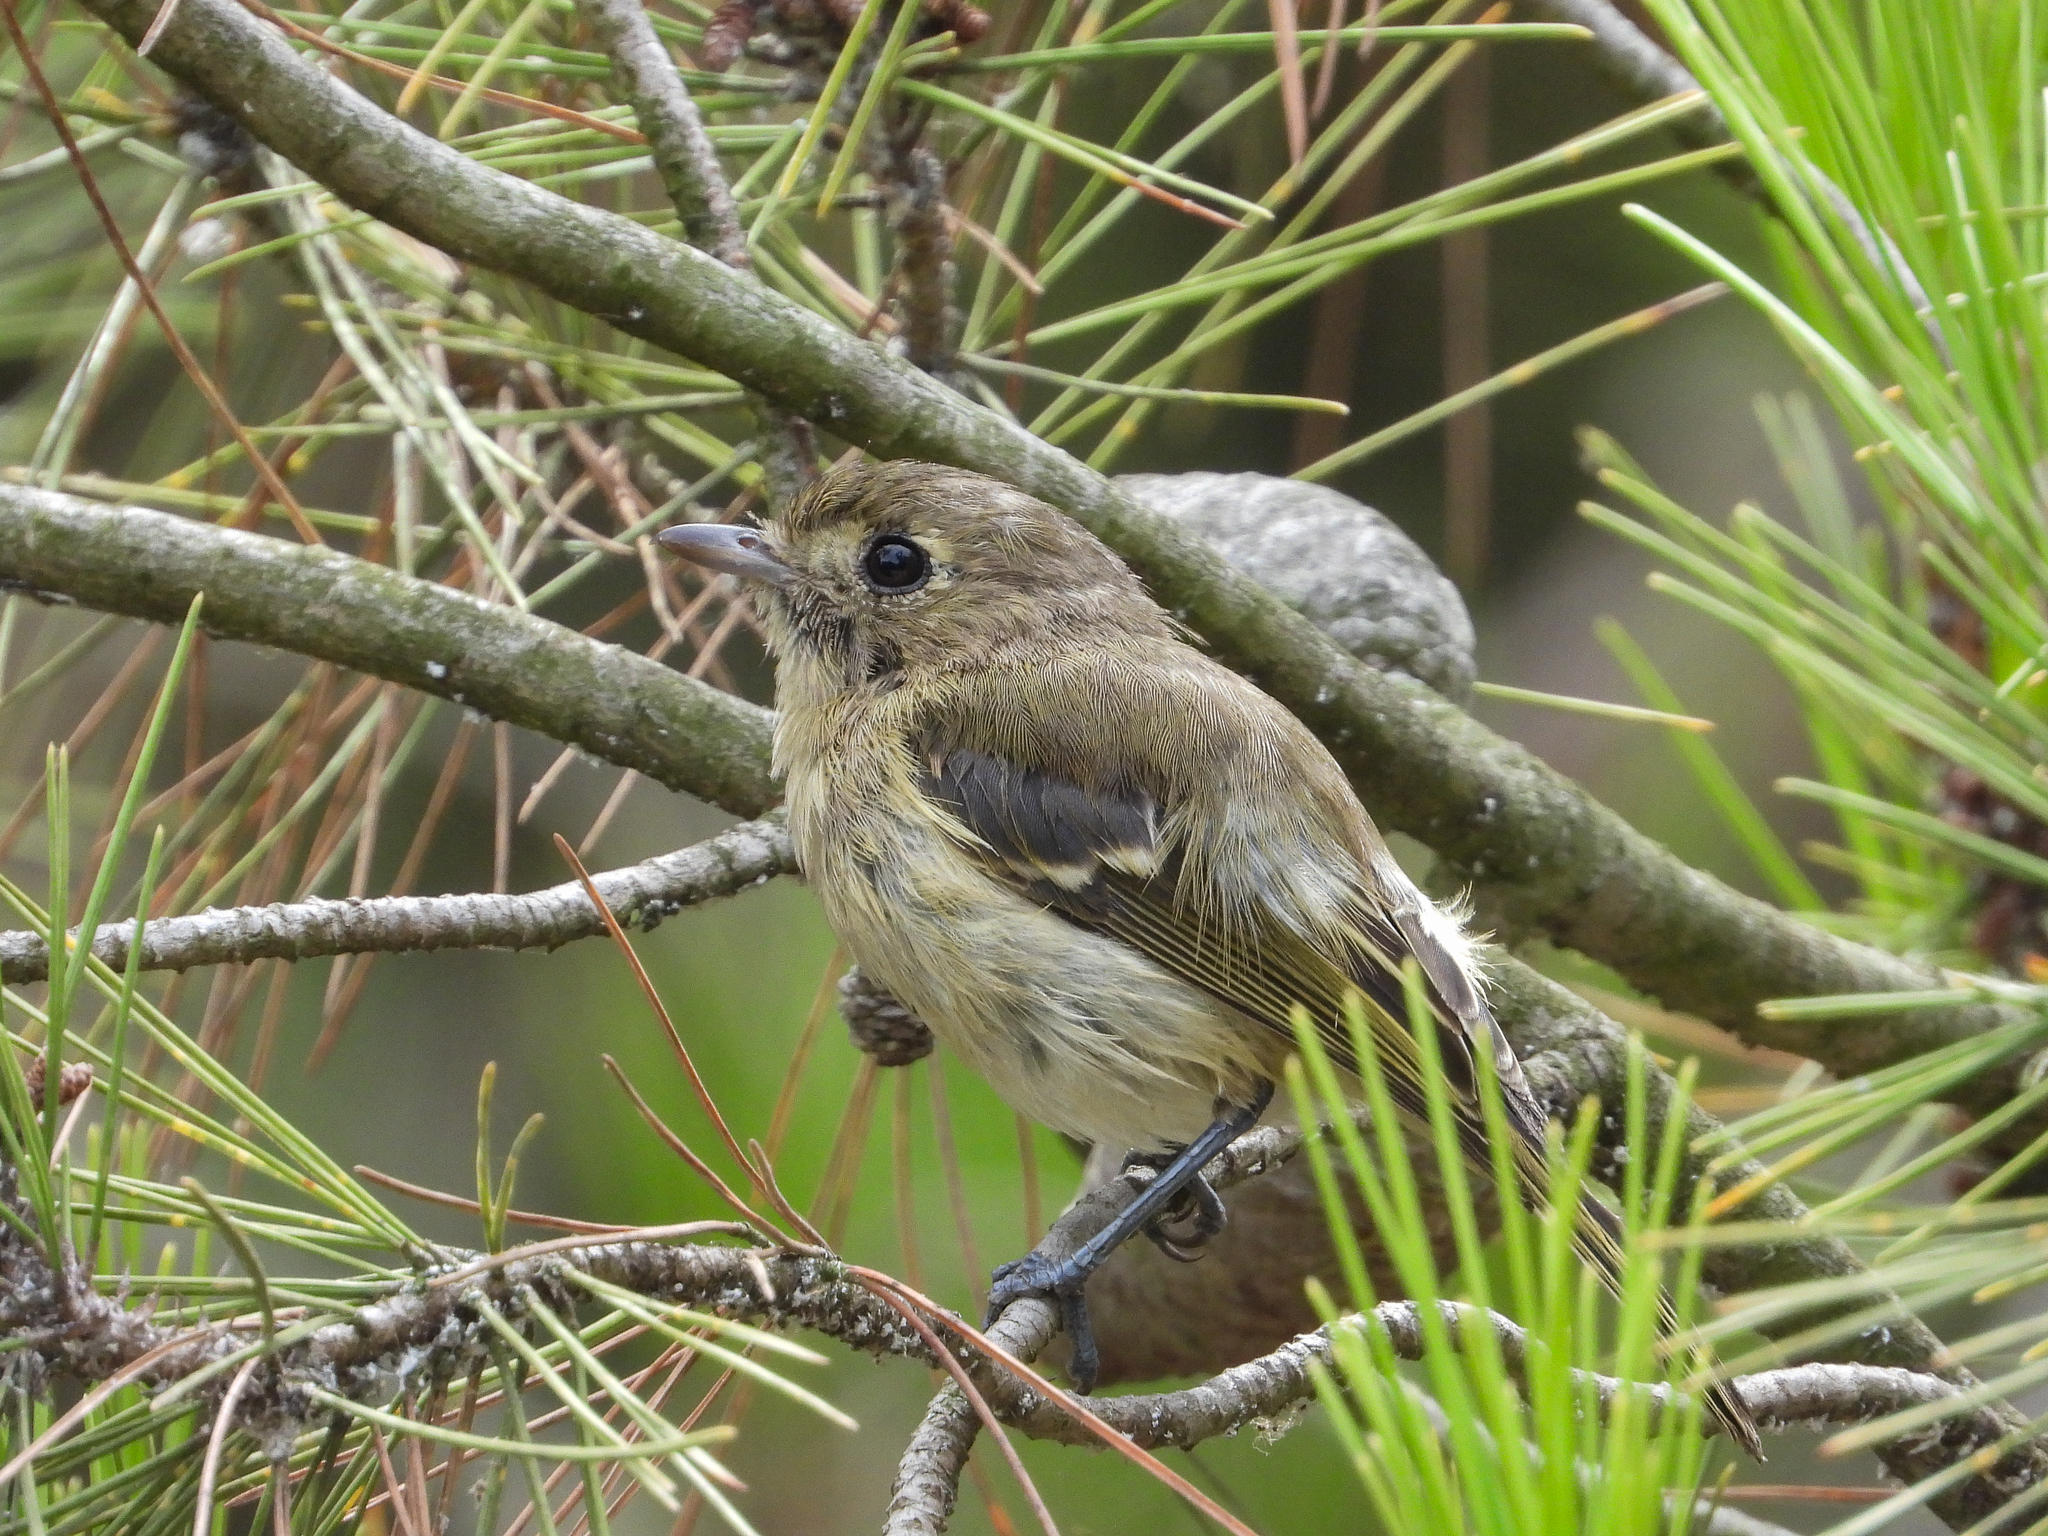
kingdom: Animalia
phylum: Chordata
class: Aves
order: Passeriformes
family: Vireonidae
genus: Vireo
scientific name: Vireo huttoni
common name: Hutton's vireo
